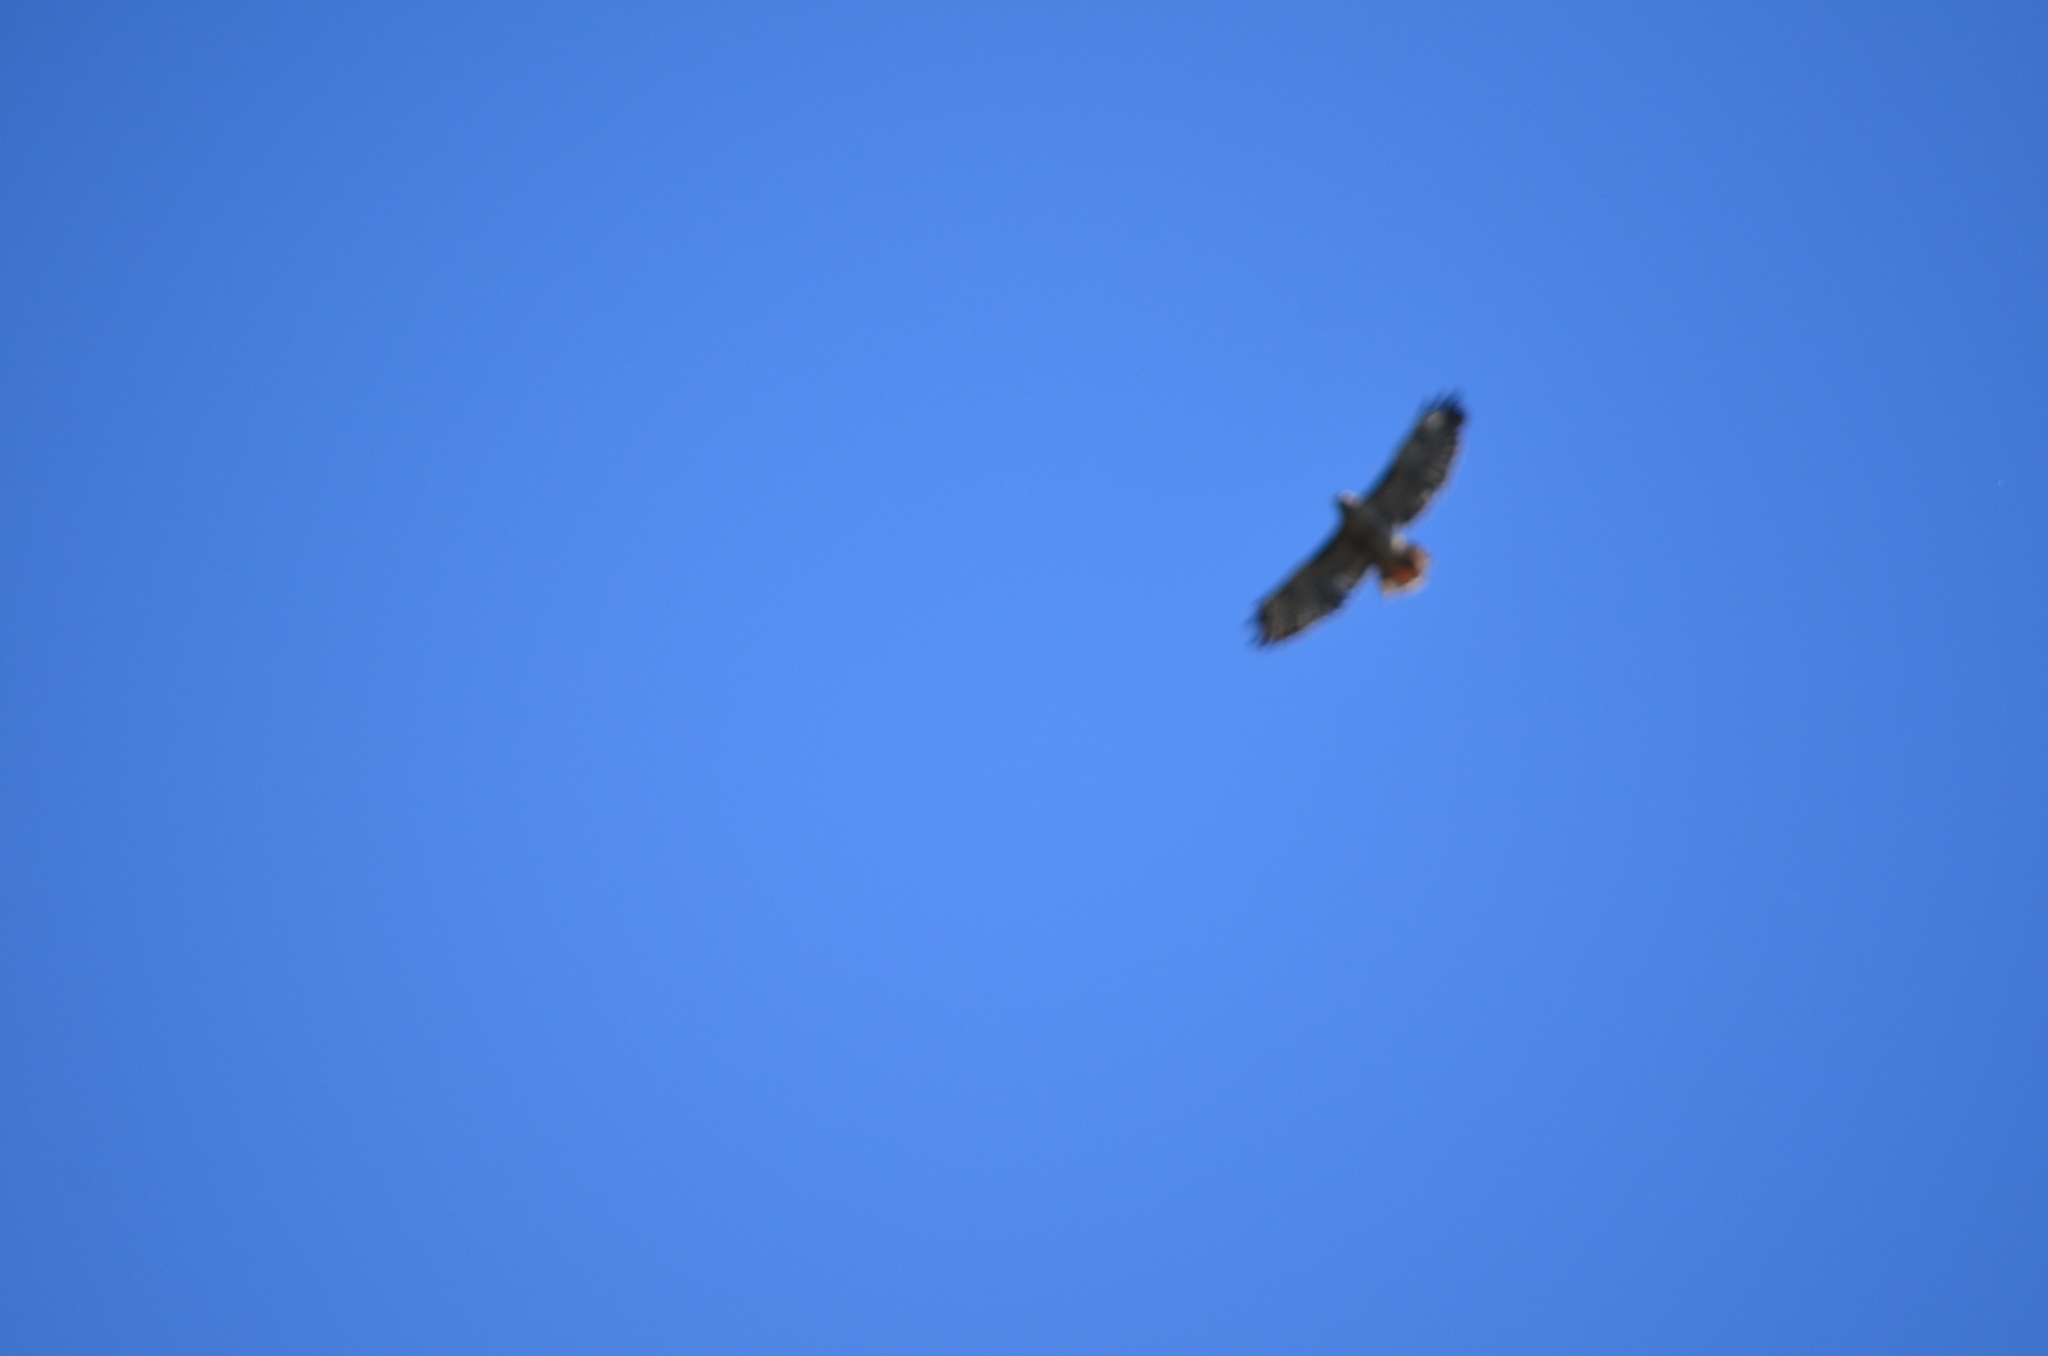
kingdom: Animalia
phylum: Chordata
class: Aves
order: Accipitriformes
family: Accipitridae
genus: Buteo
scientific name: Buteo jamaicensis
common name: Red-tailed hawk
